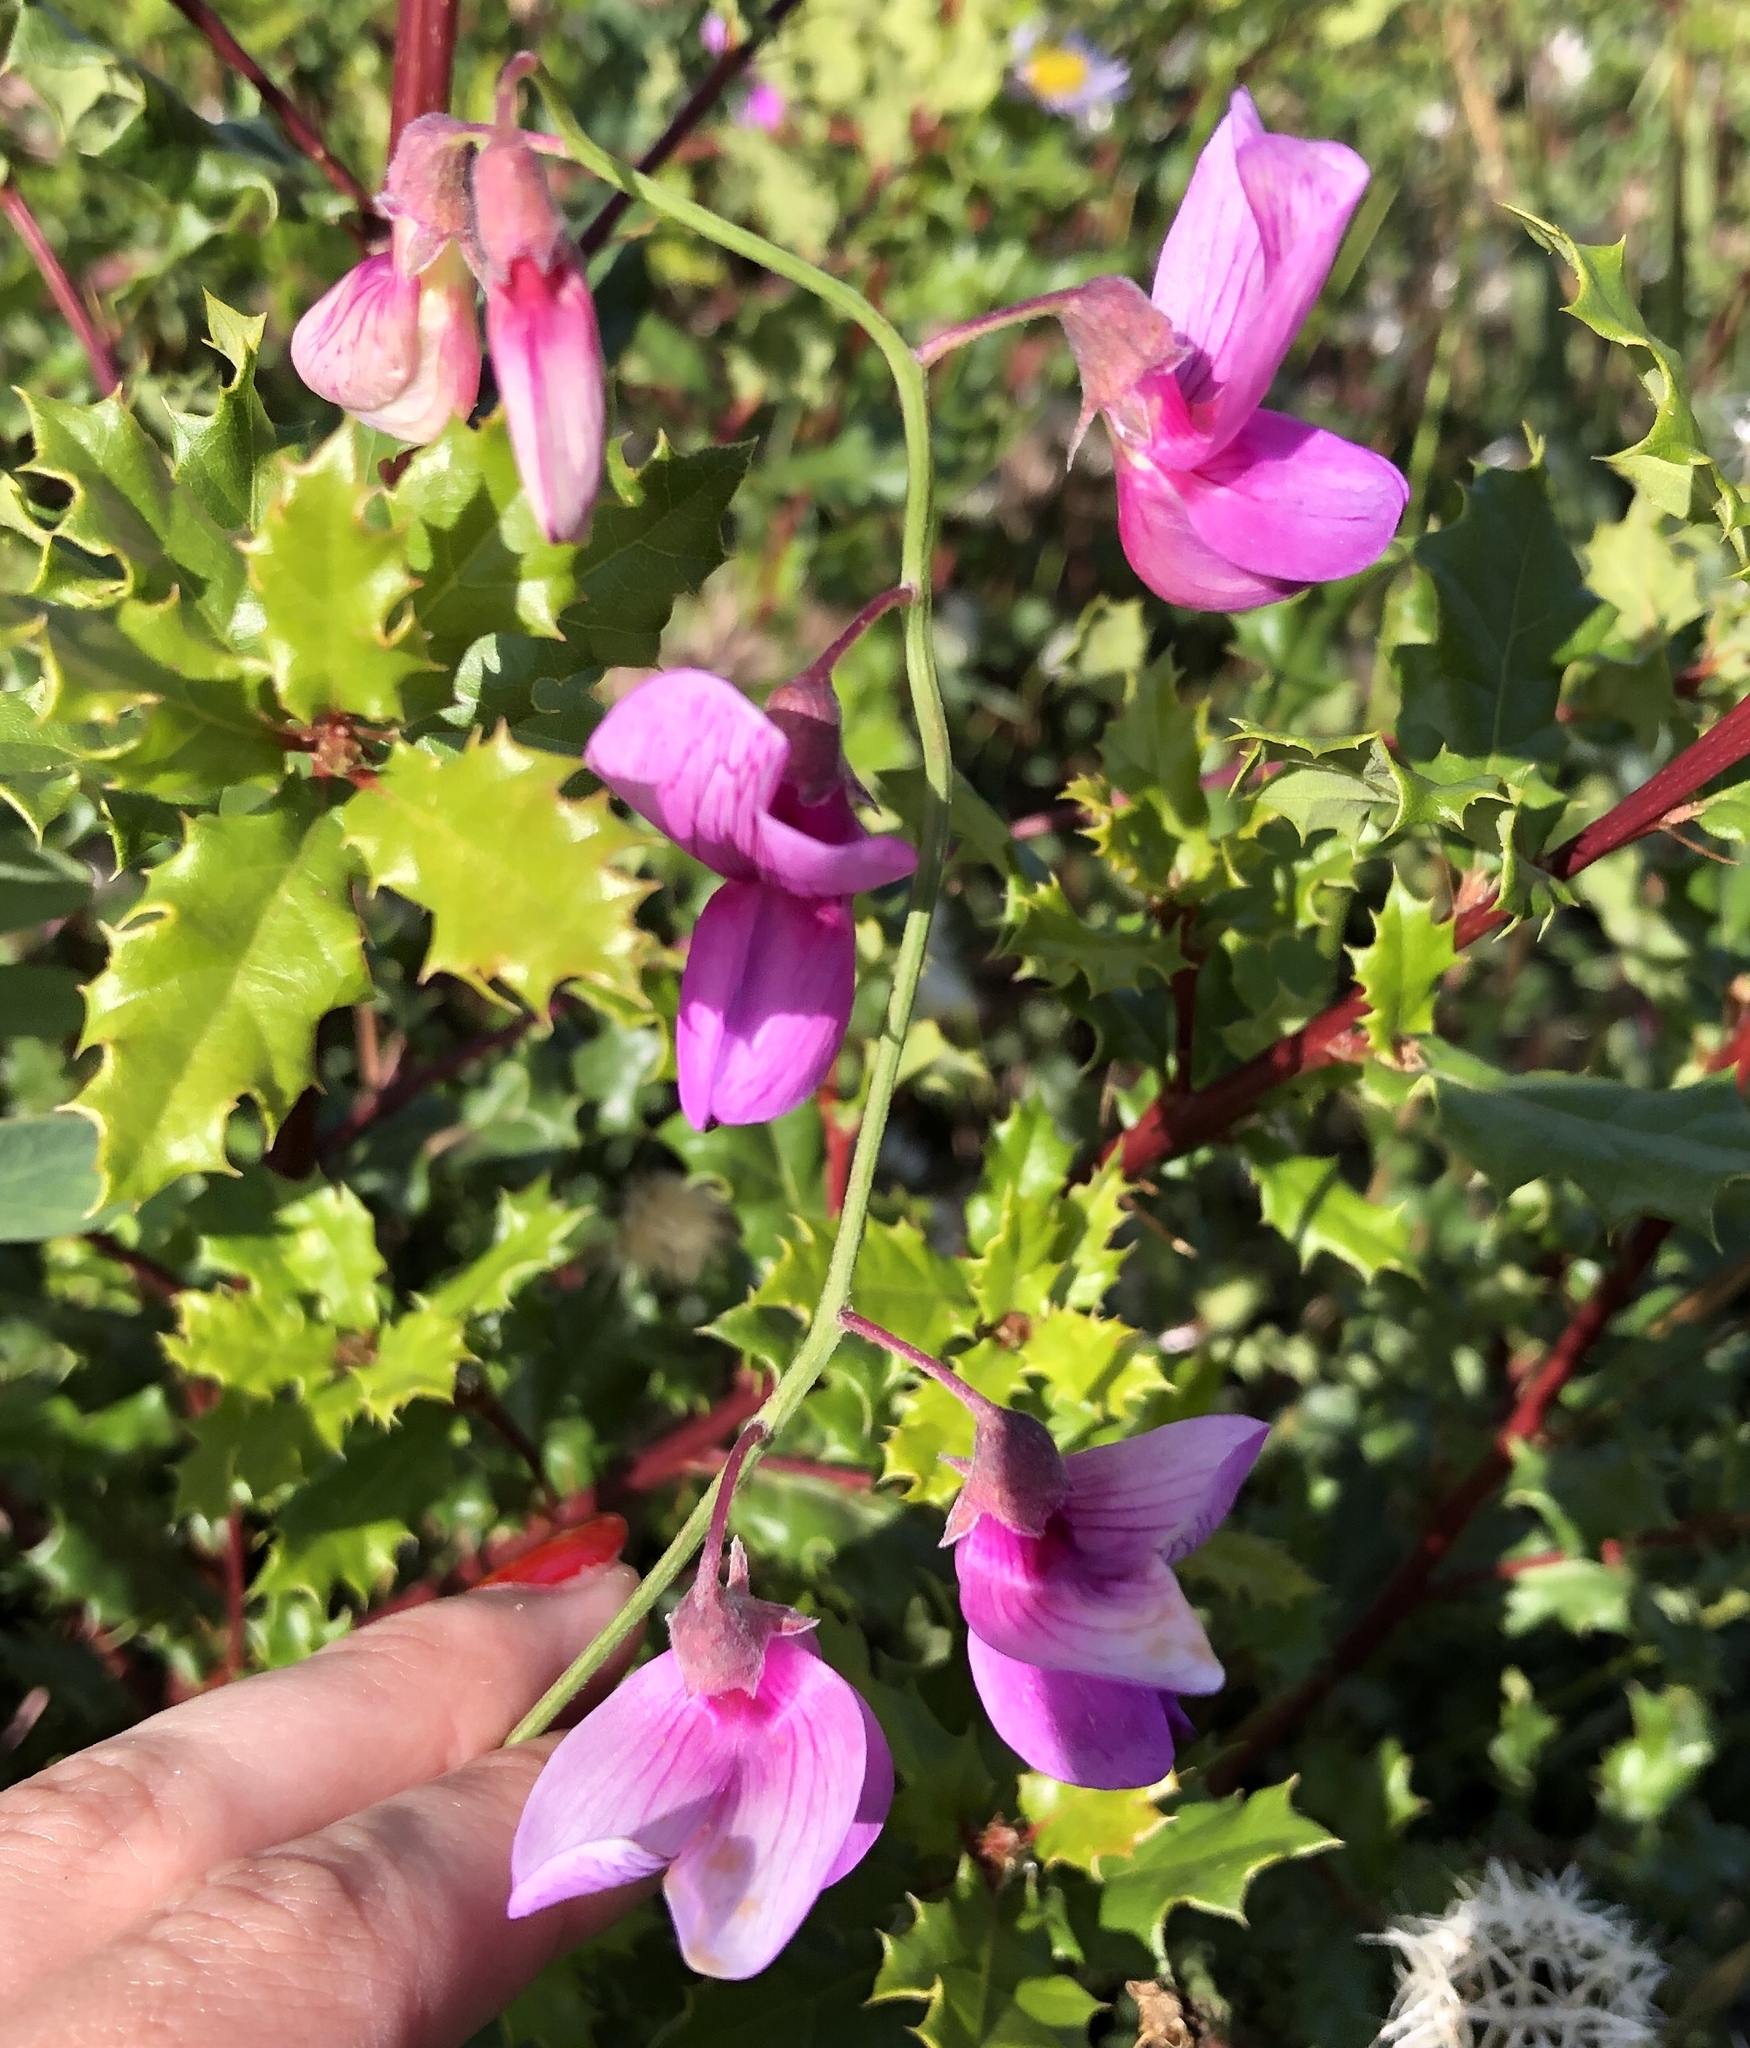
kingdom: Plantae
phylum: Tracheophyta
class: Magnoliopsida
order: Fabales
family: Fabaceae
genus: Lathyrus
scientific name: Lathyrus vestitus
